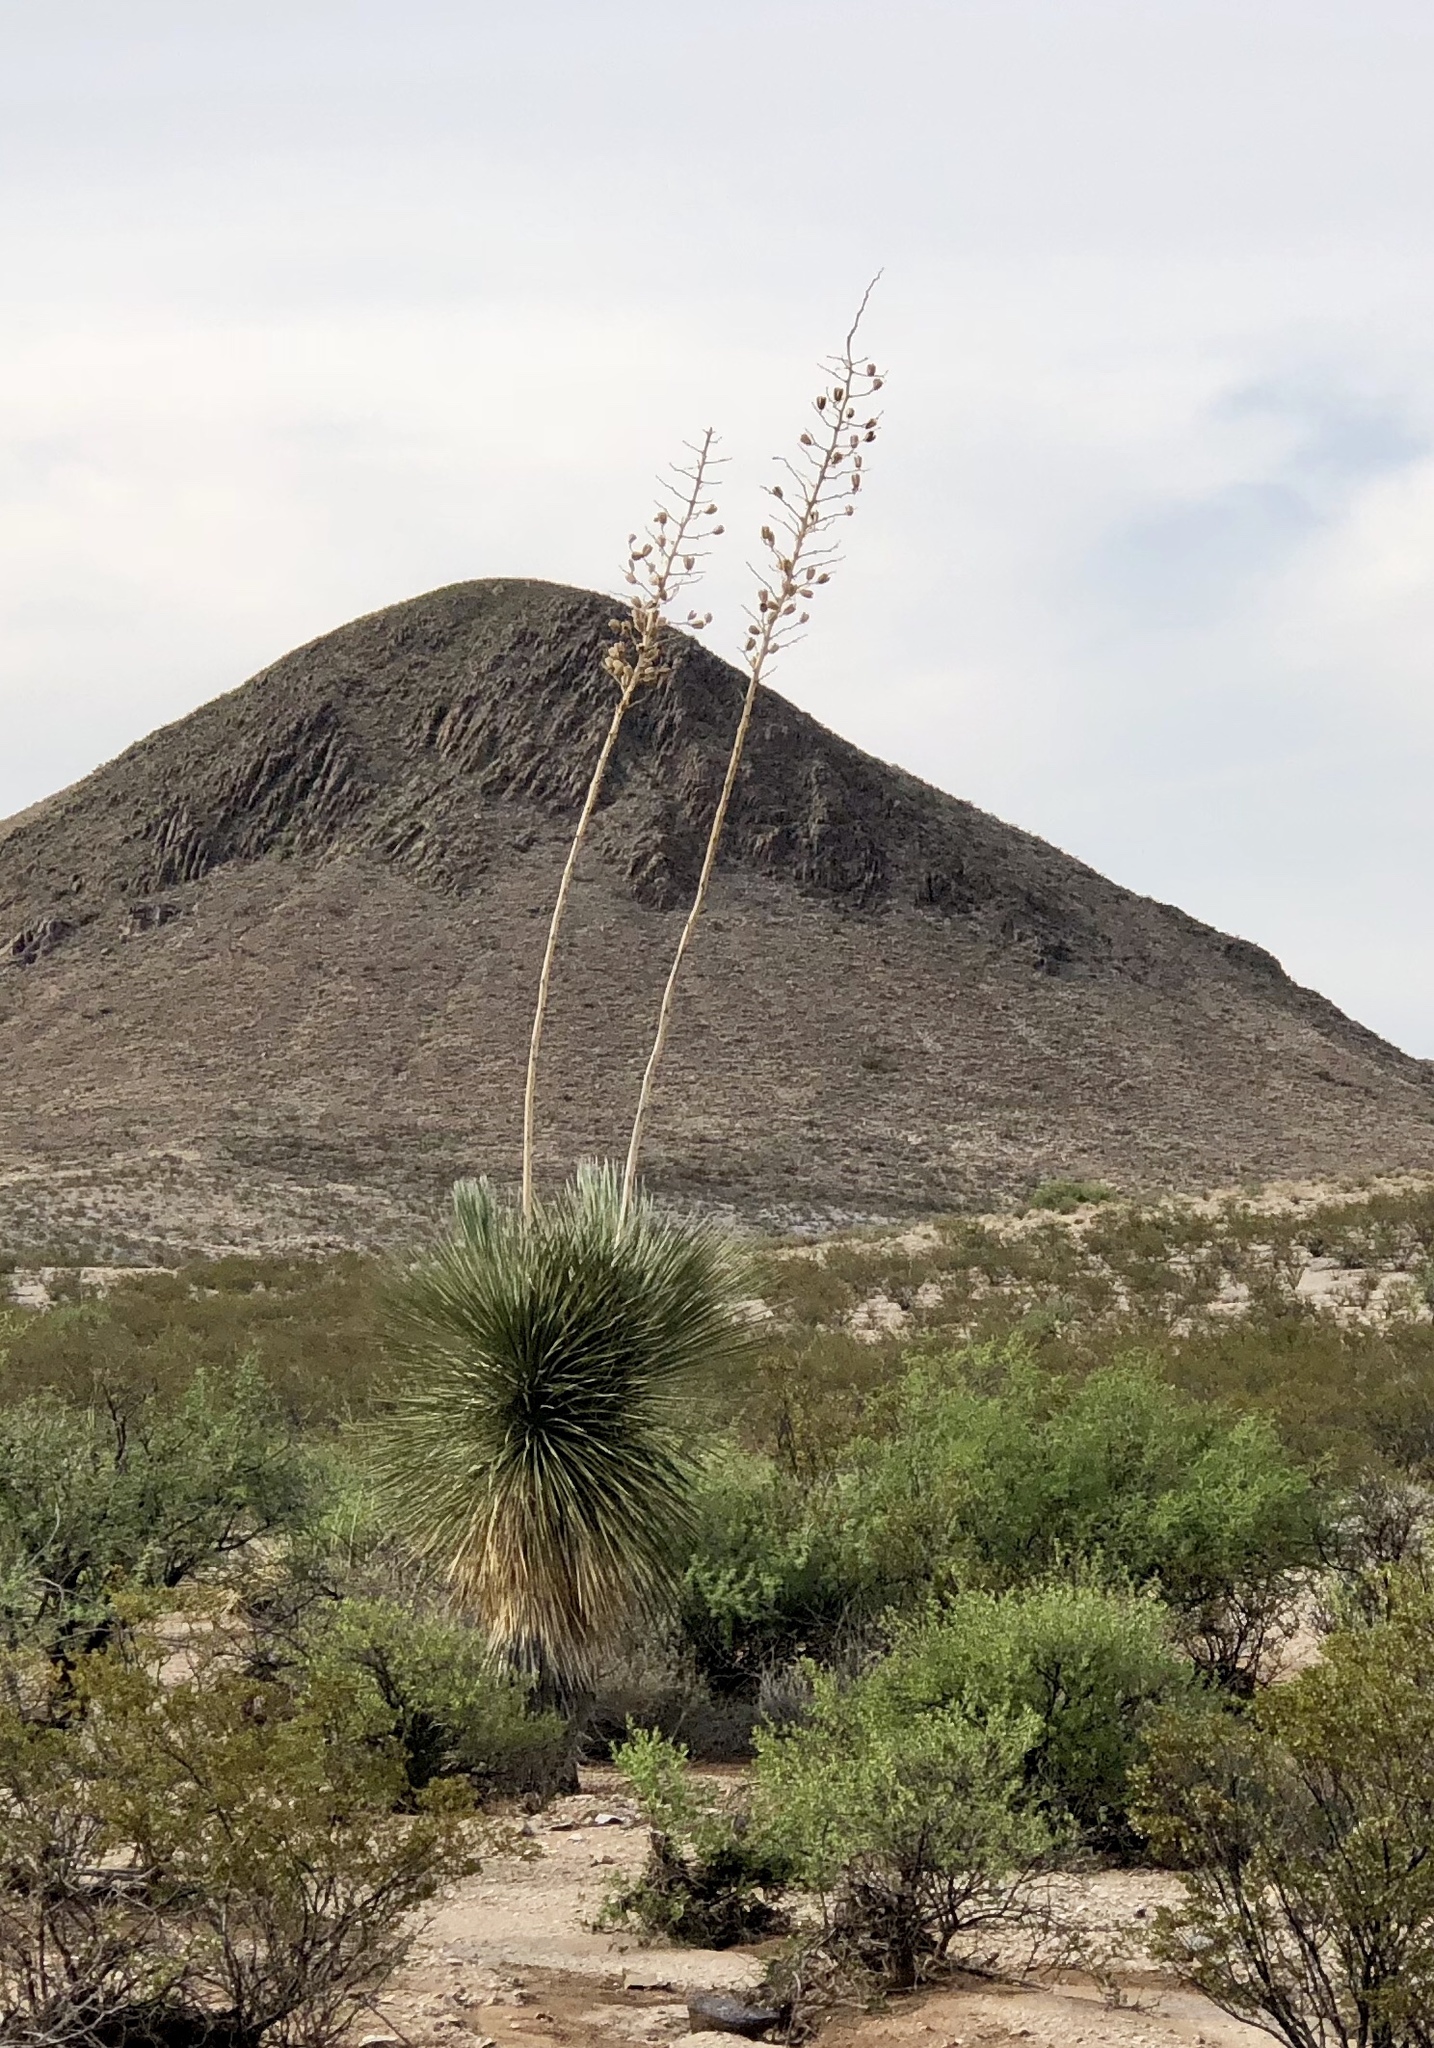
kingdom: Plantae
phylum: Tracheophyta
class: Liliopsida
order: Asparagales
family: Asparagaceae
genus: Yucca
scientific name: Yucca elata
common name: Palmella
